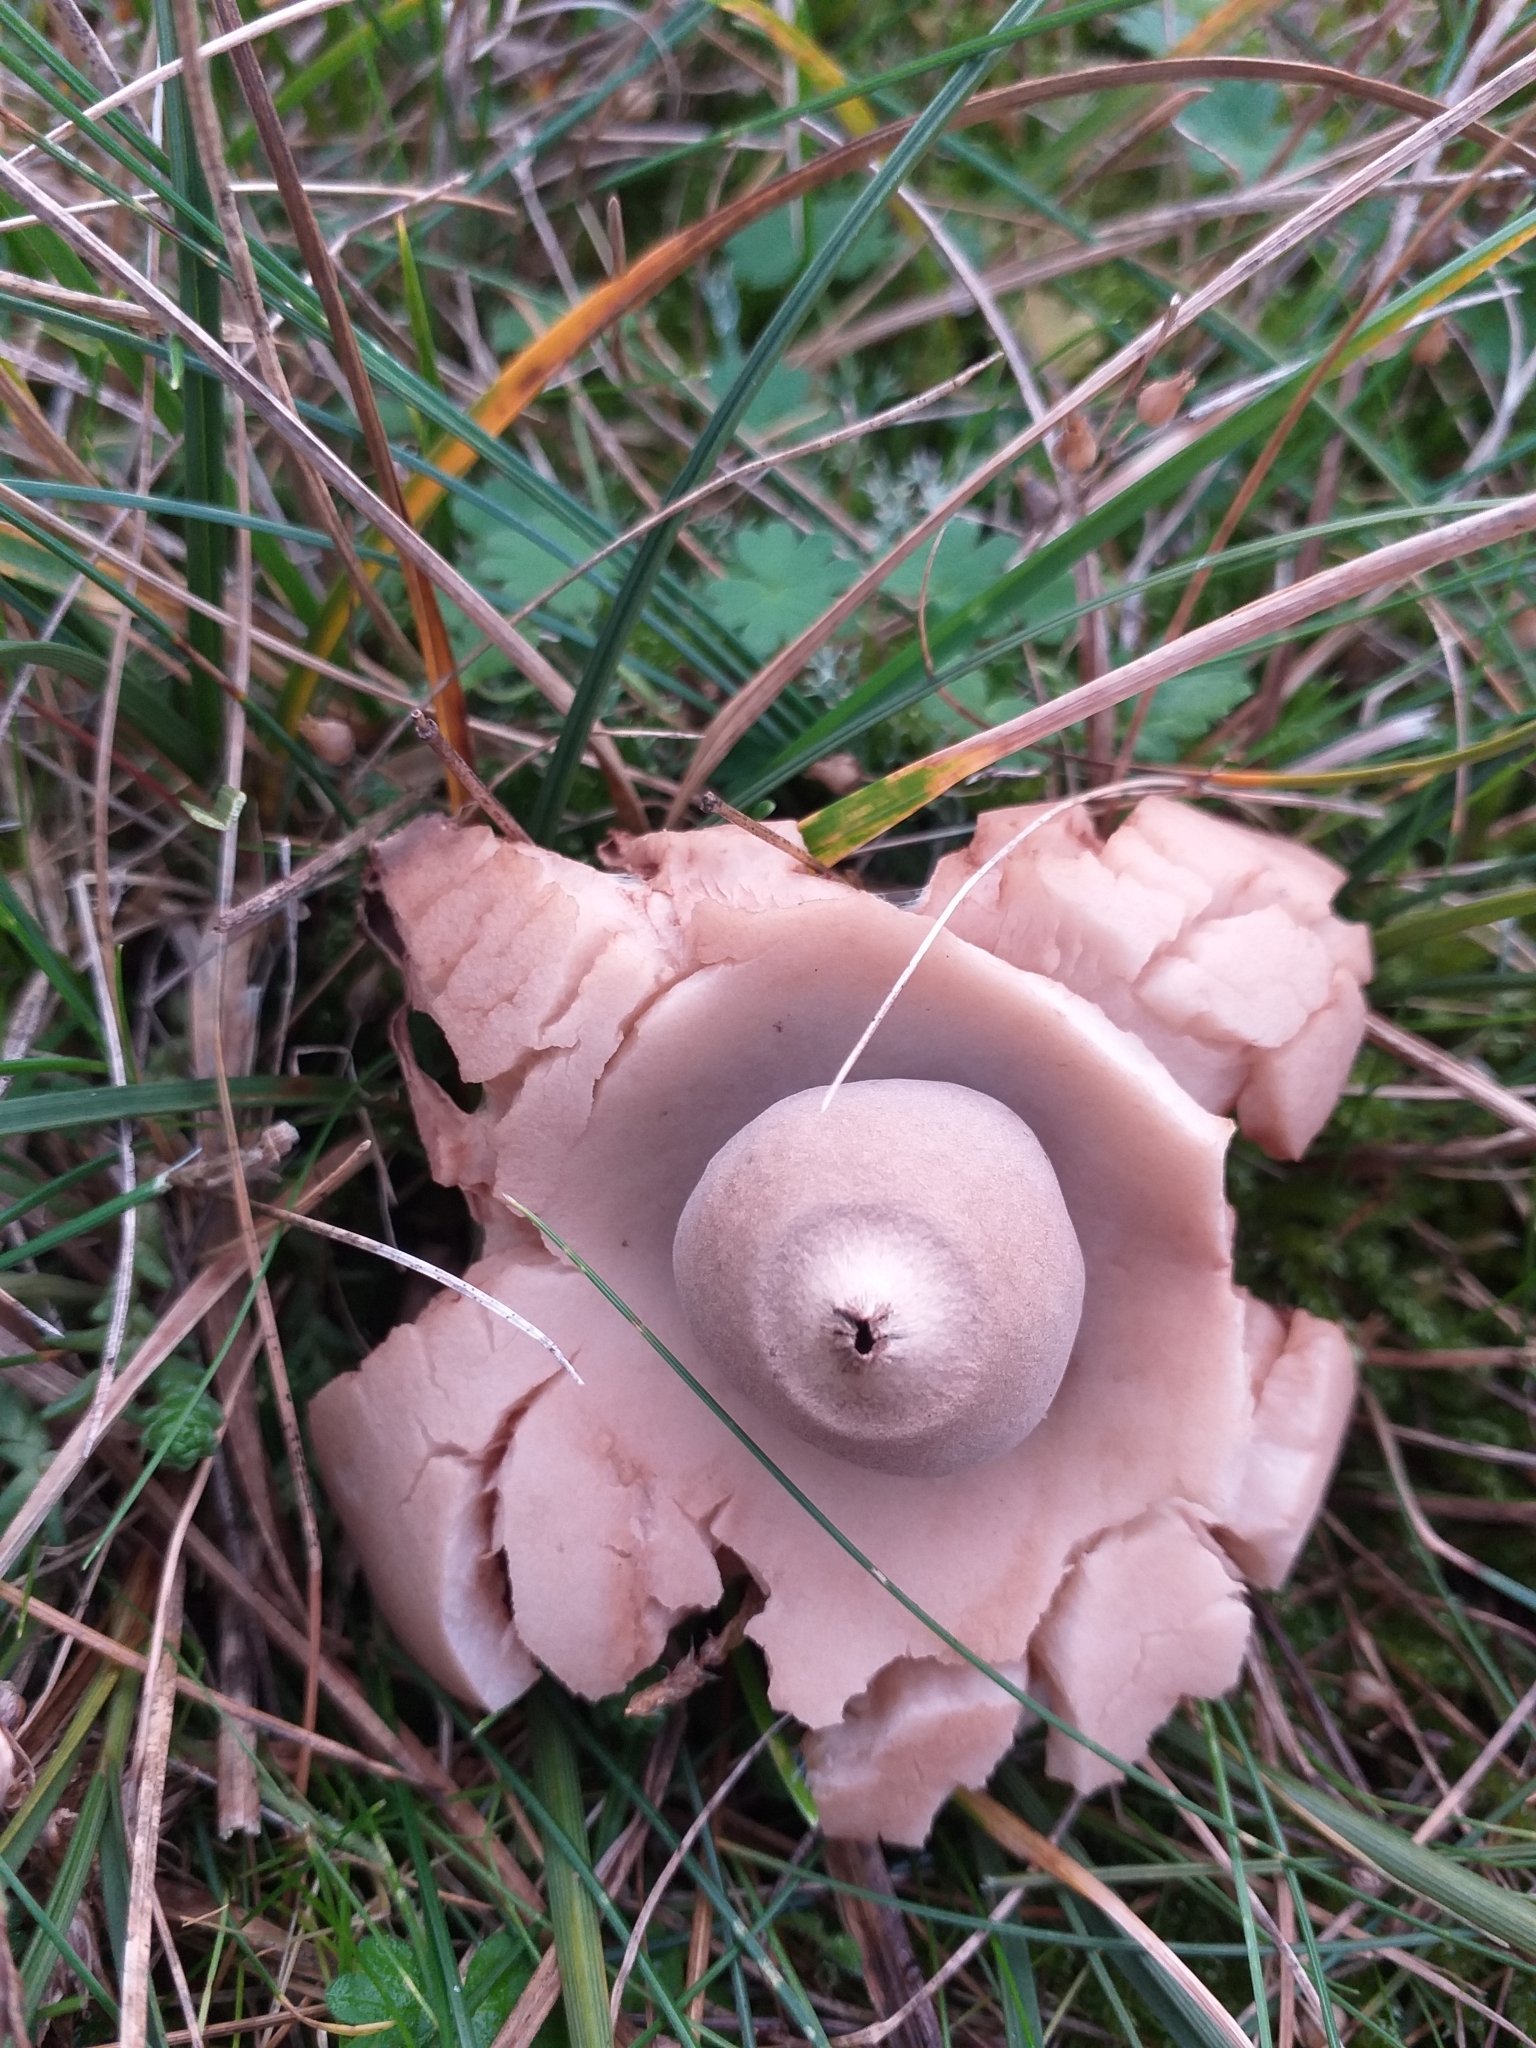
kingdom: Fungi
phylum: Basidiomycota
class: Agaricomycetes
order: Geastrales
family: Geastraceae
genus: Geastrum
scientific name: Geastrum triplex
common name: Collared earthstar
